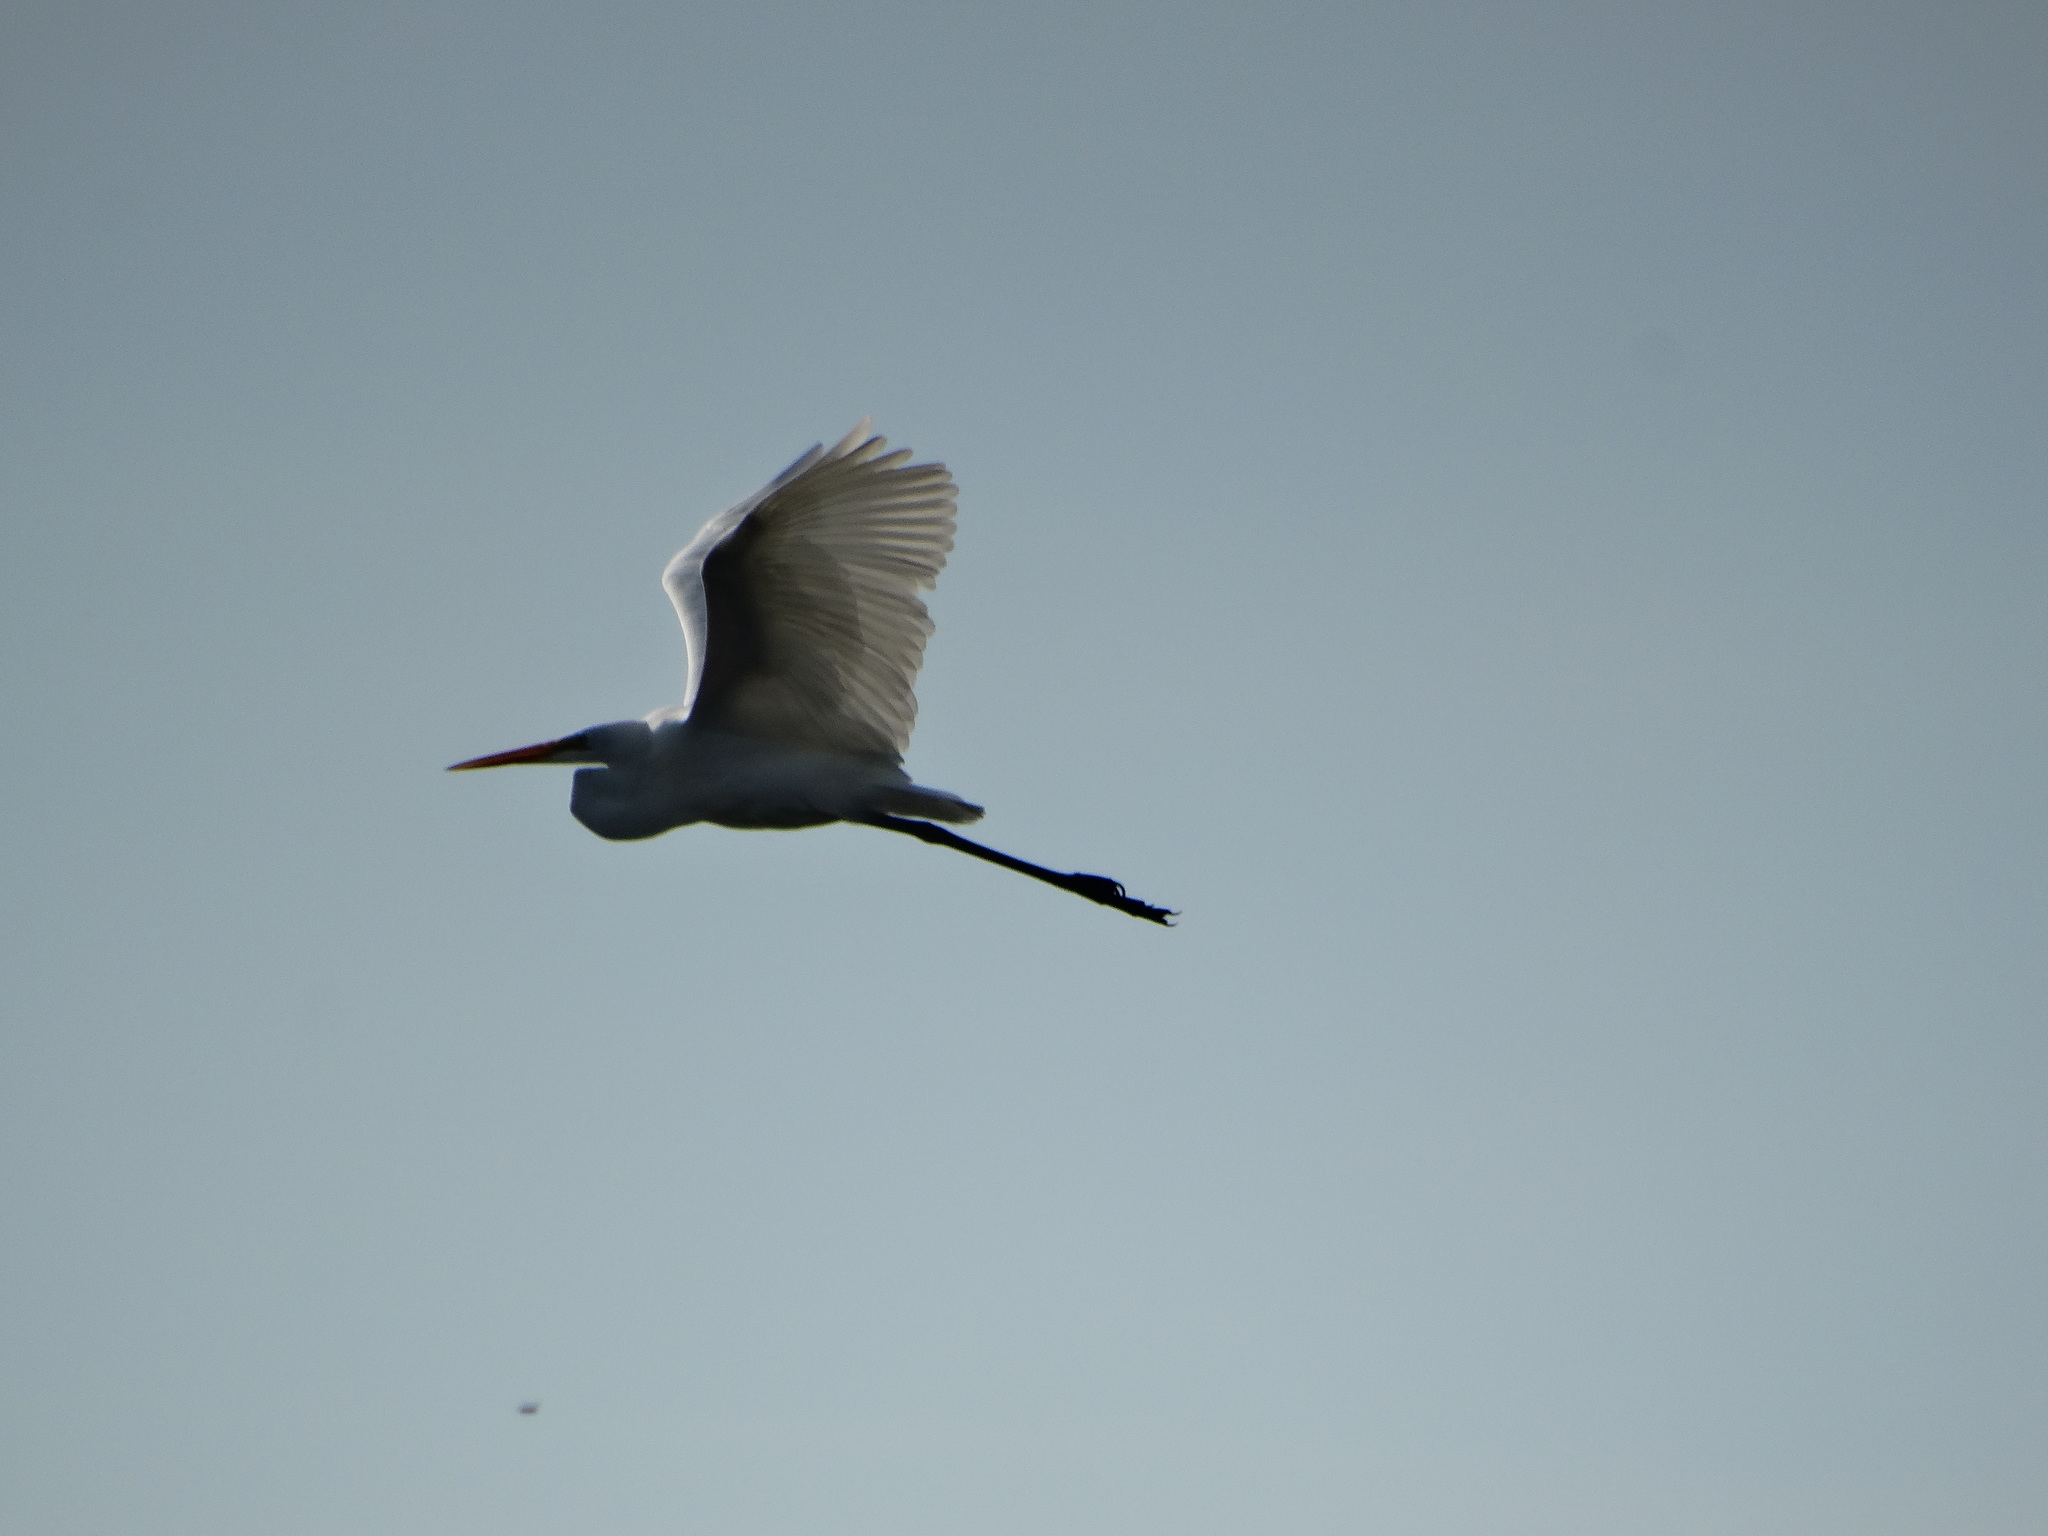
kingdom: Animalia
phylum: Chordata
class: Aves
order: Pelecaniformes
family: Ardeidae
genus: Ardea
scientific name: Ardea alba
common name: Great egret
